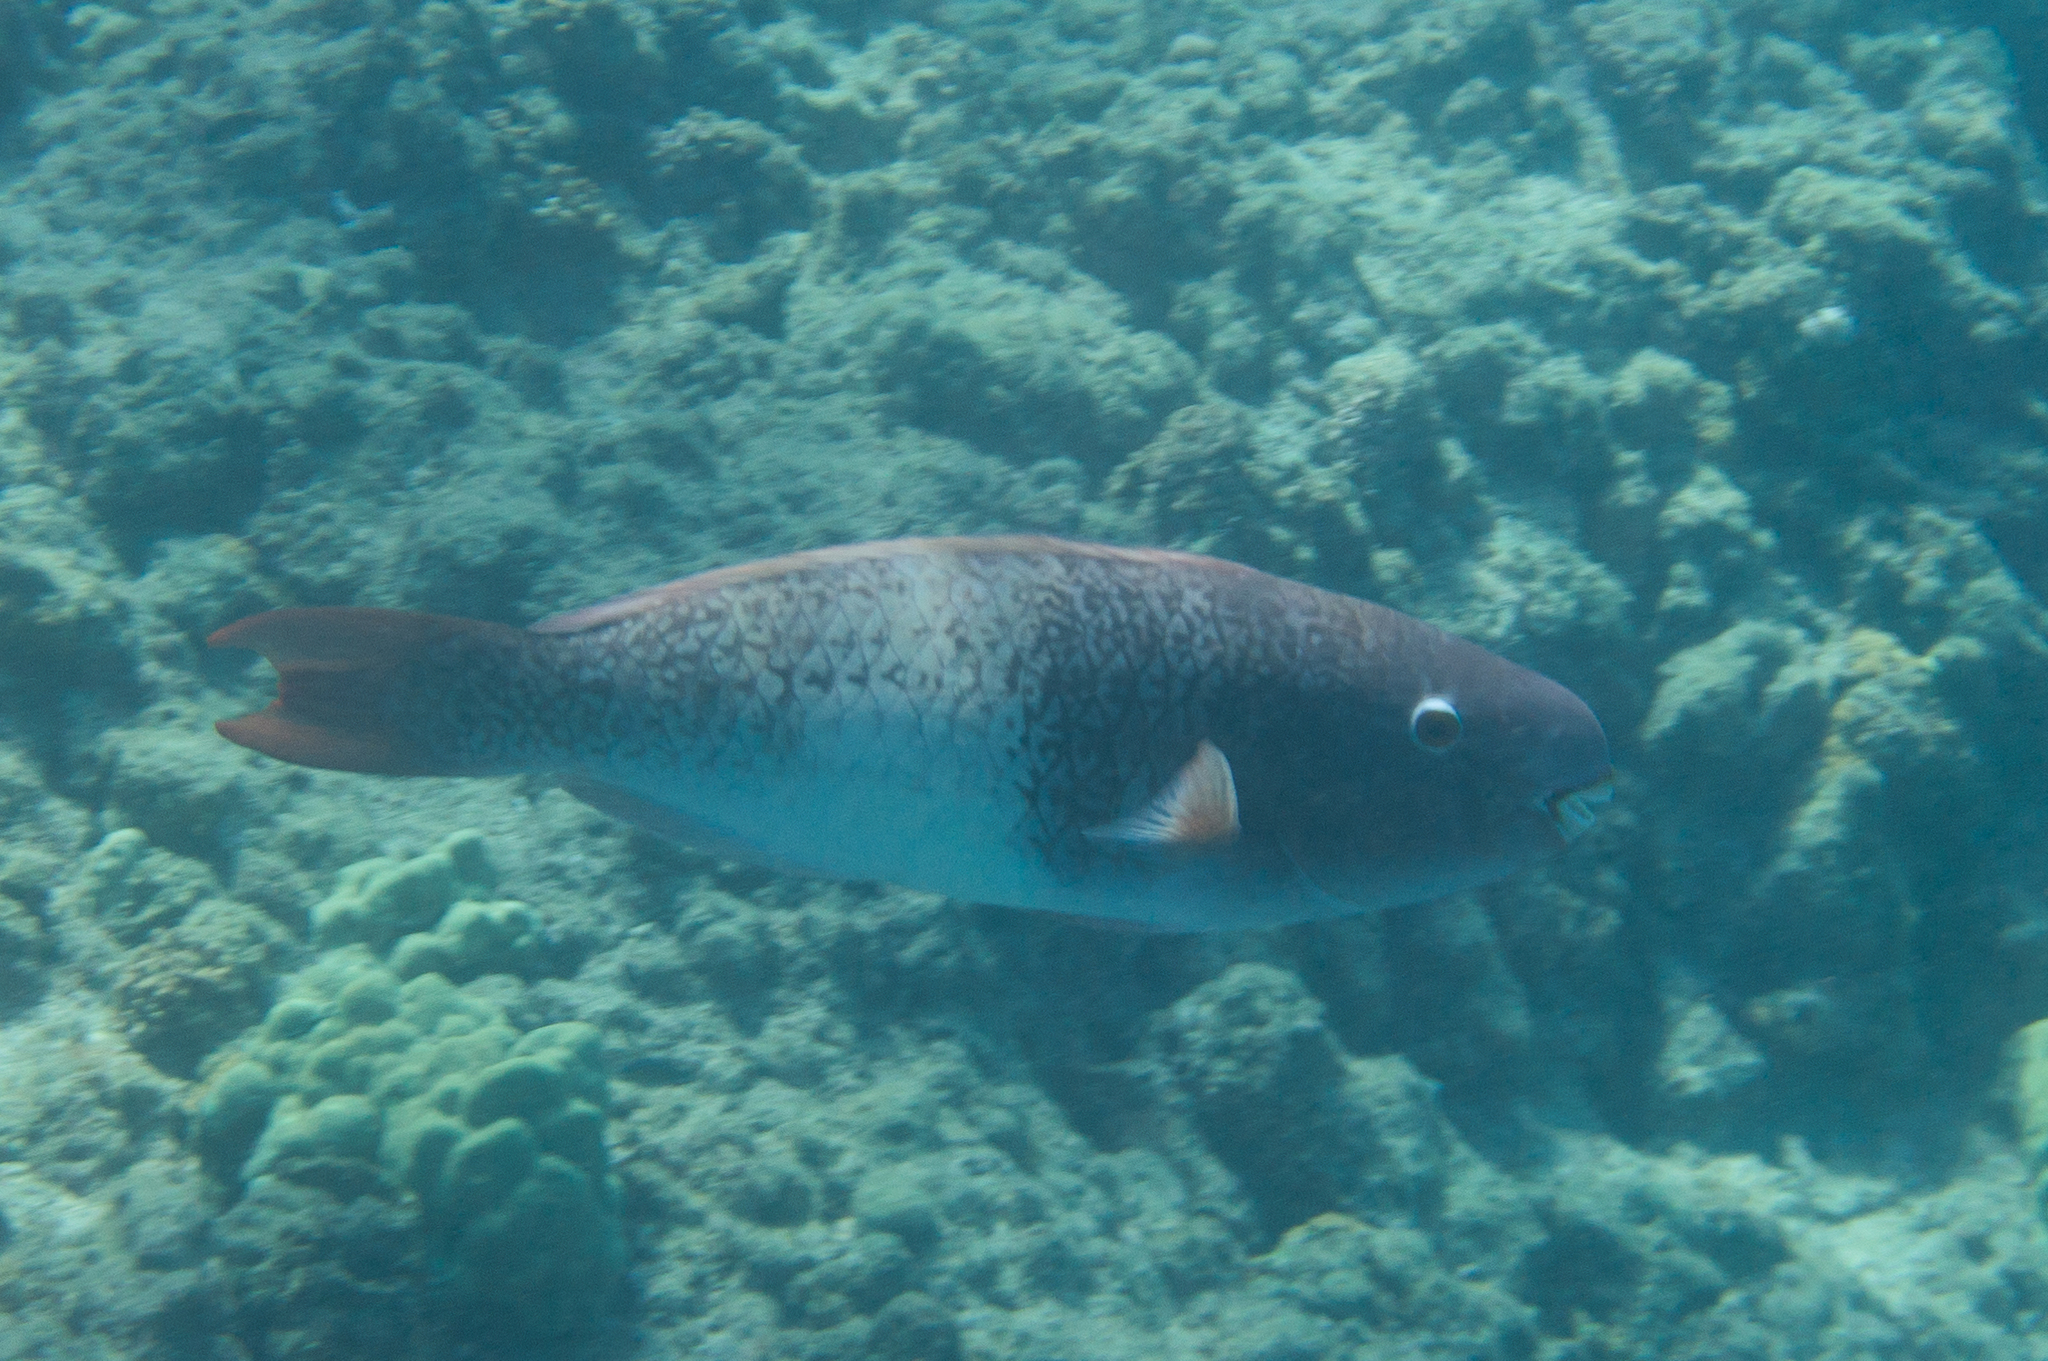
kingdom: Animalia
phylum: Chordata
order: Perciformes
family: Scaridae
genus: Scarus
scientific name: Scarus rubroviolaceus
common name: Ember parrotfish
